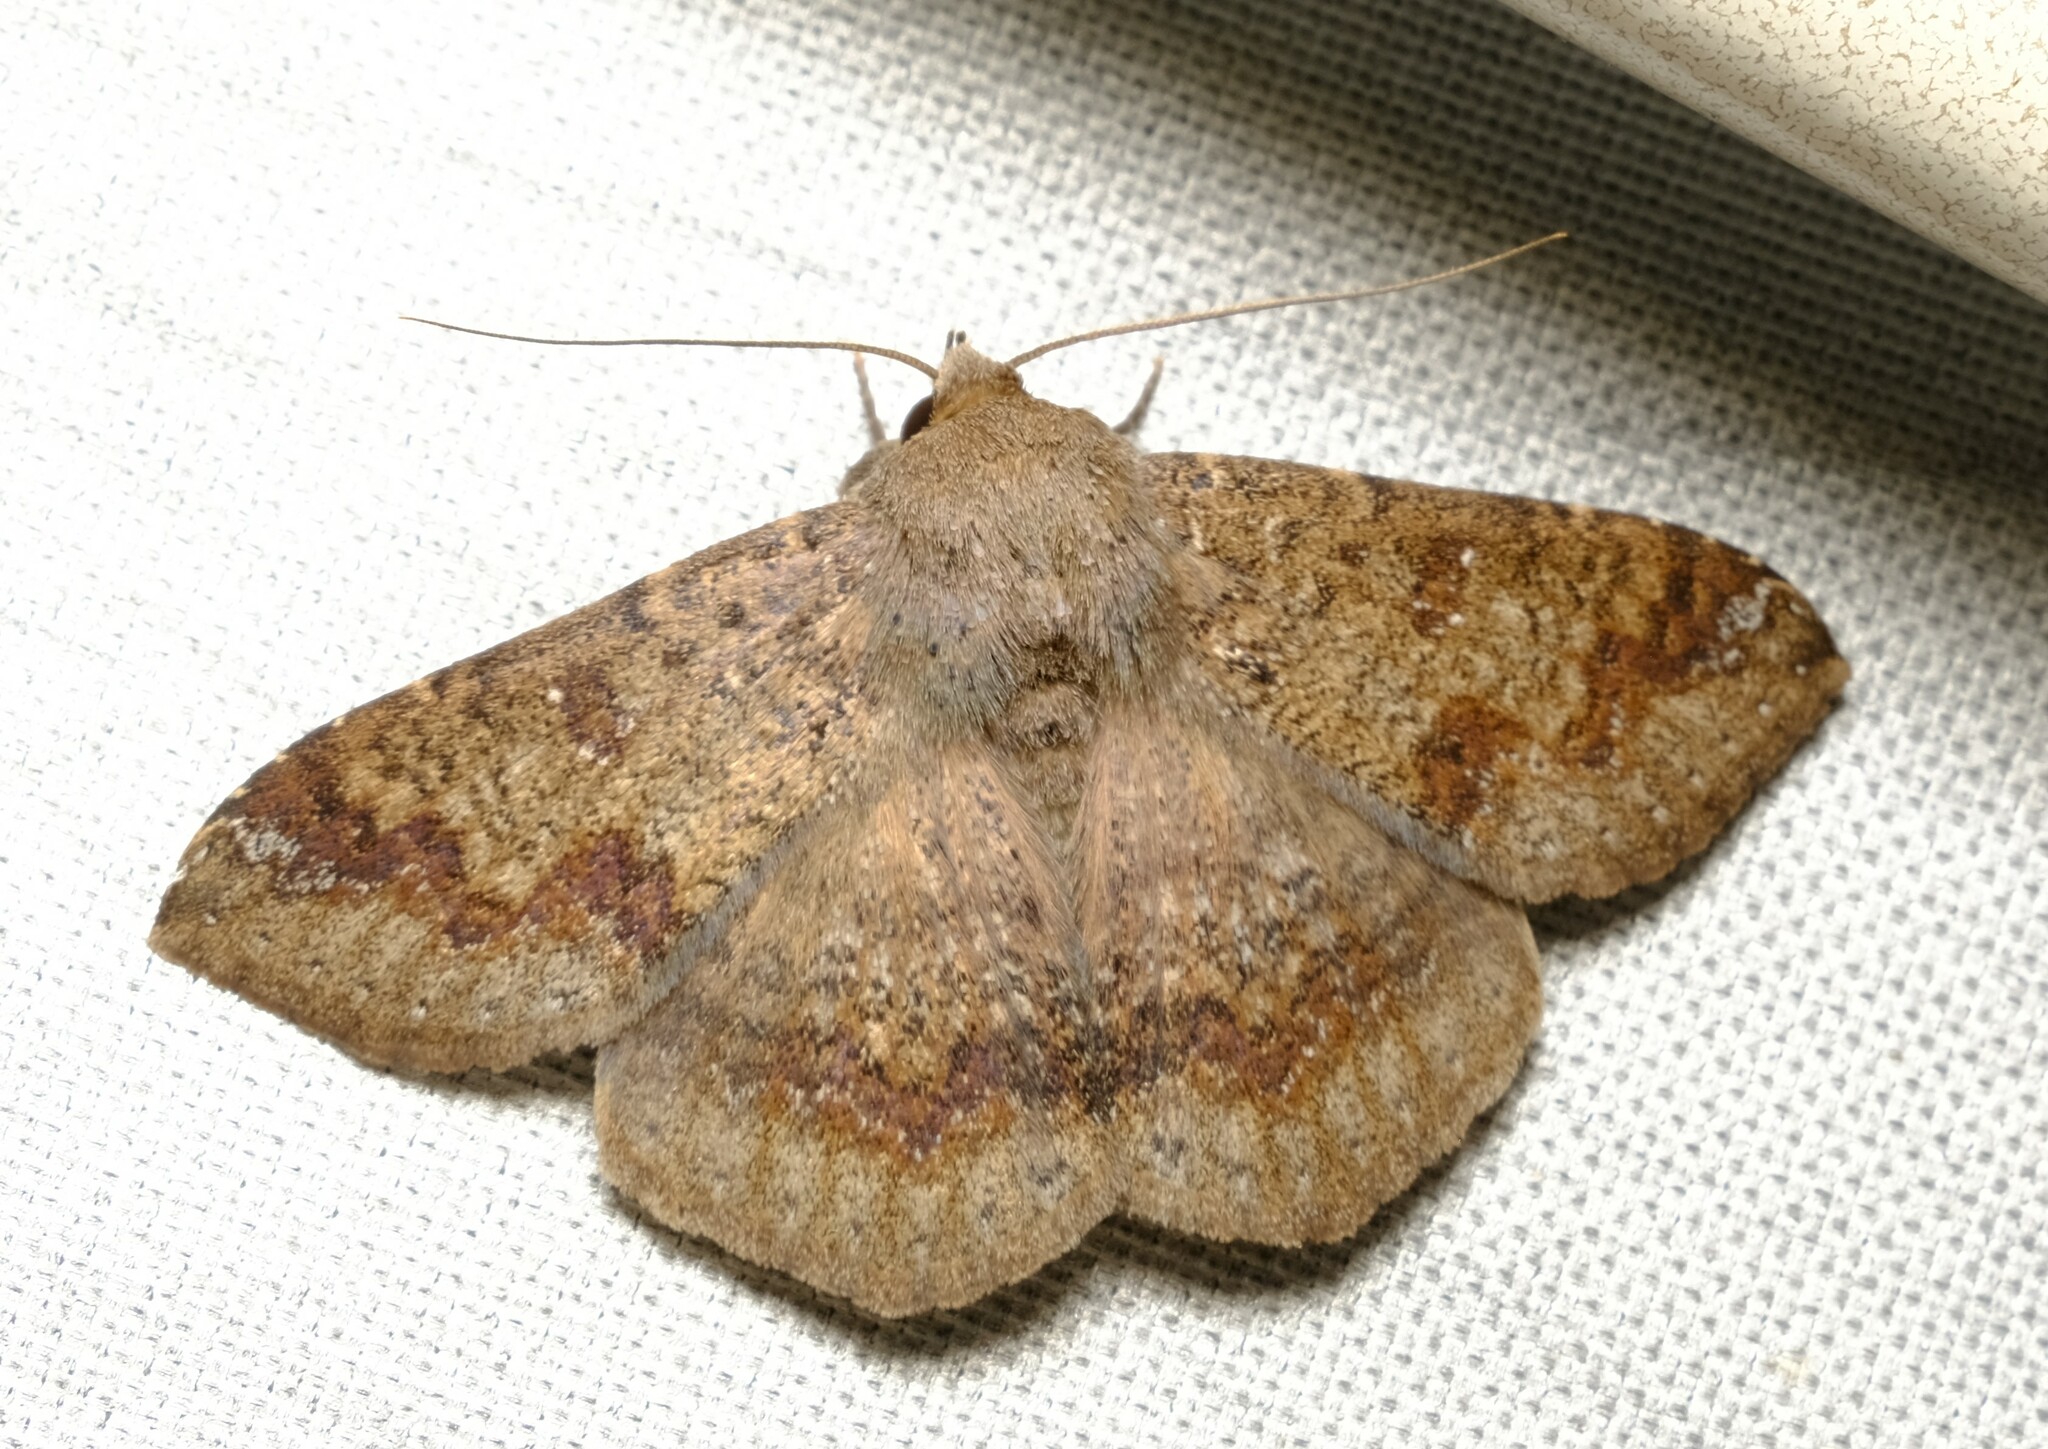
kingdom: Animalia
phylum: Arthropoda
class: Insecta
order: Lepidoptera
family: Erebidae
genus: Ericeia
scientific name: Ericeia sobria
